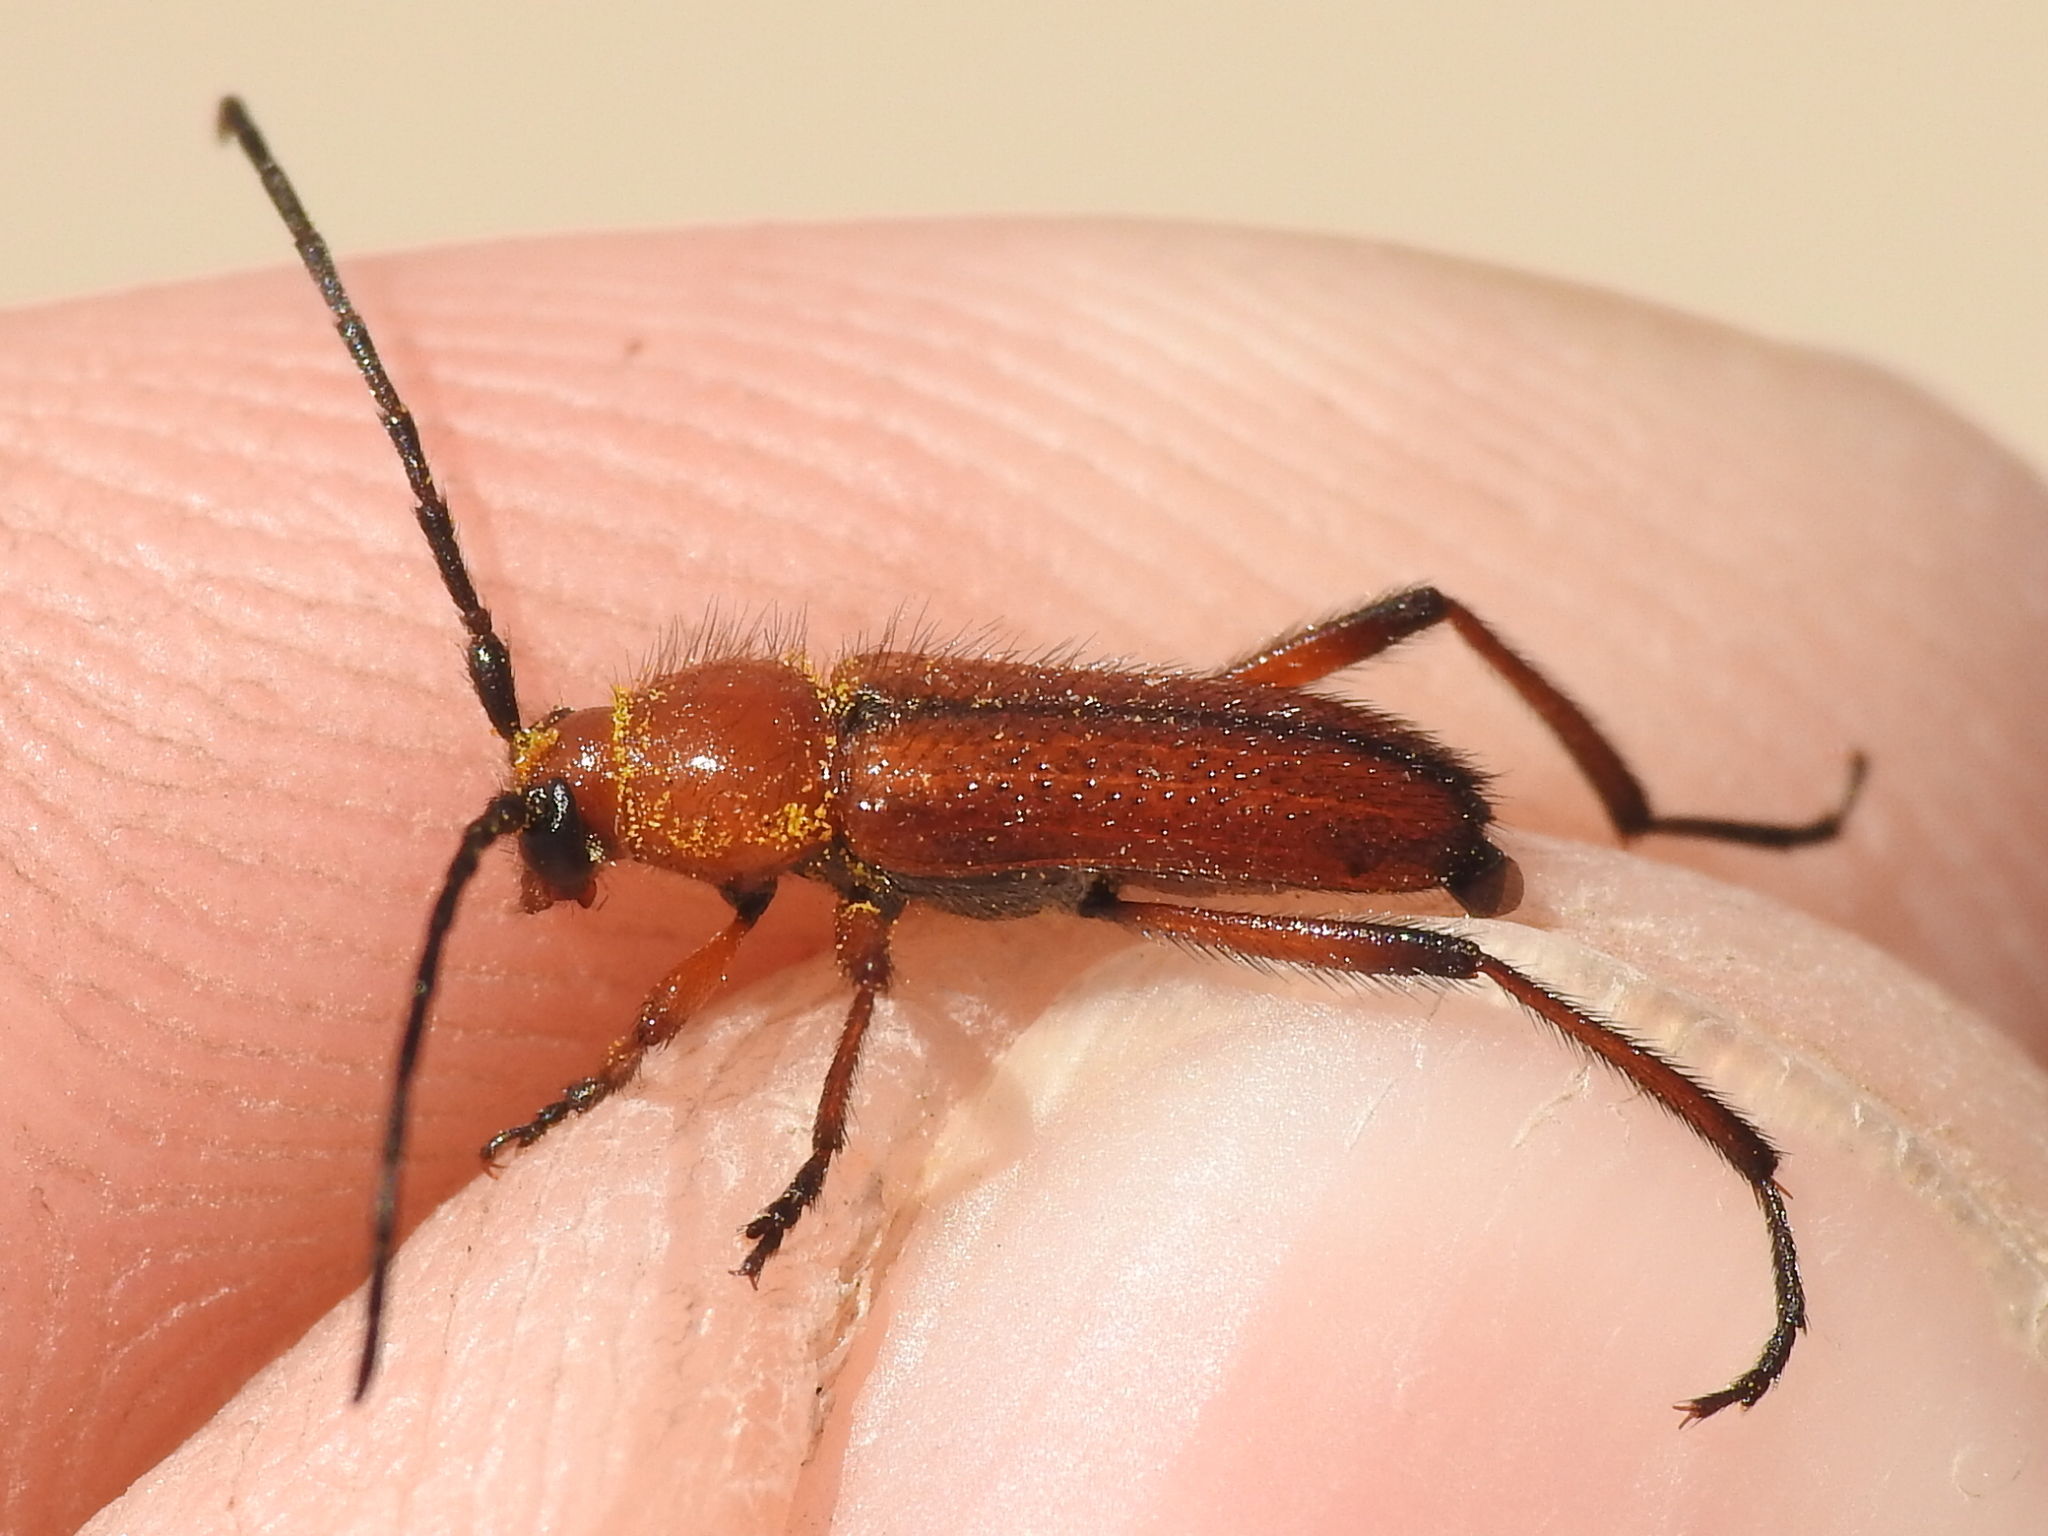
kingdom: Animalia
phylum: Arthropoda
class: Insecta
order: Coleoptera
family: Cerambycidae
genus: Batyle
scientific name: Batyle suturalis
